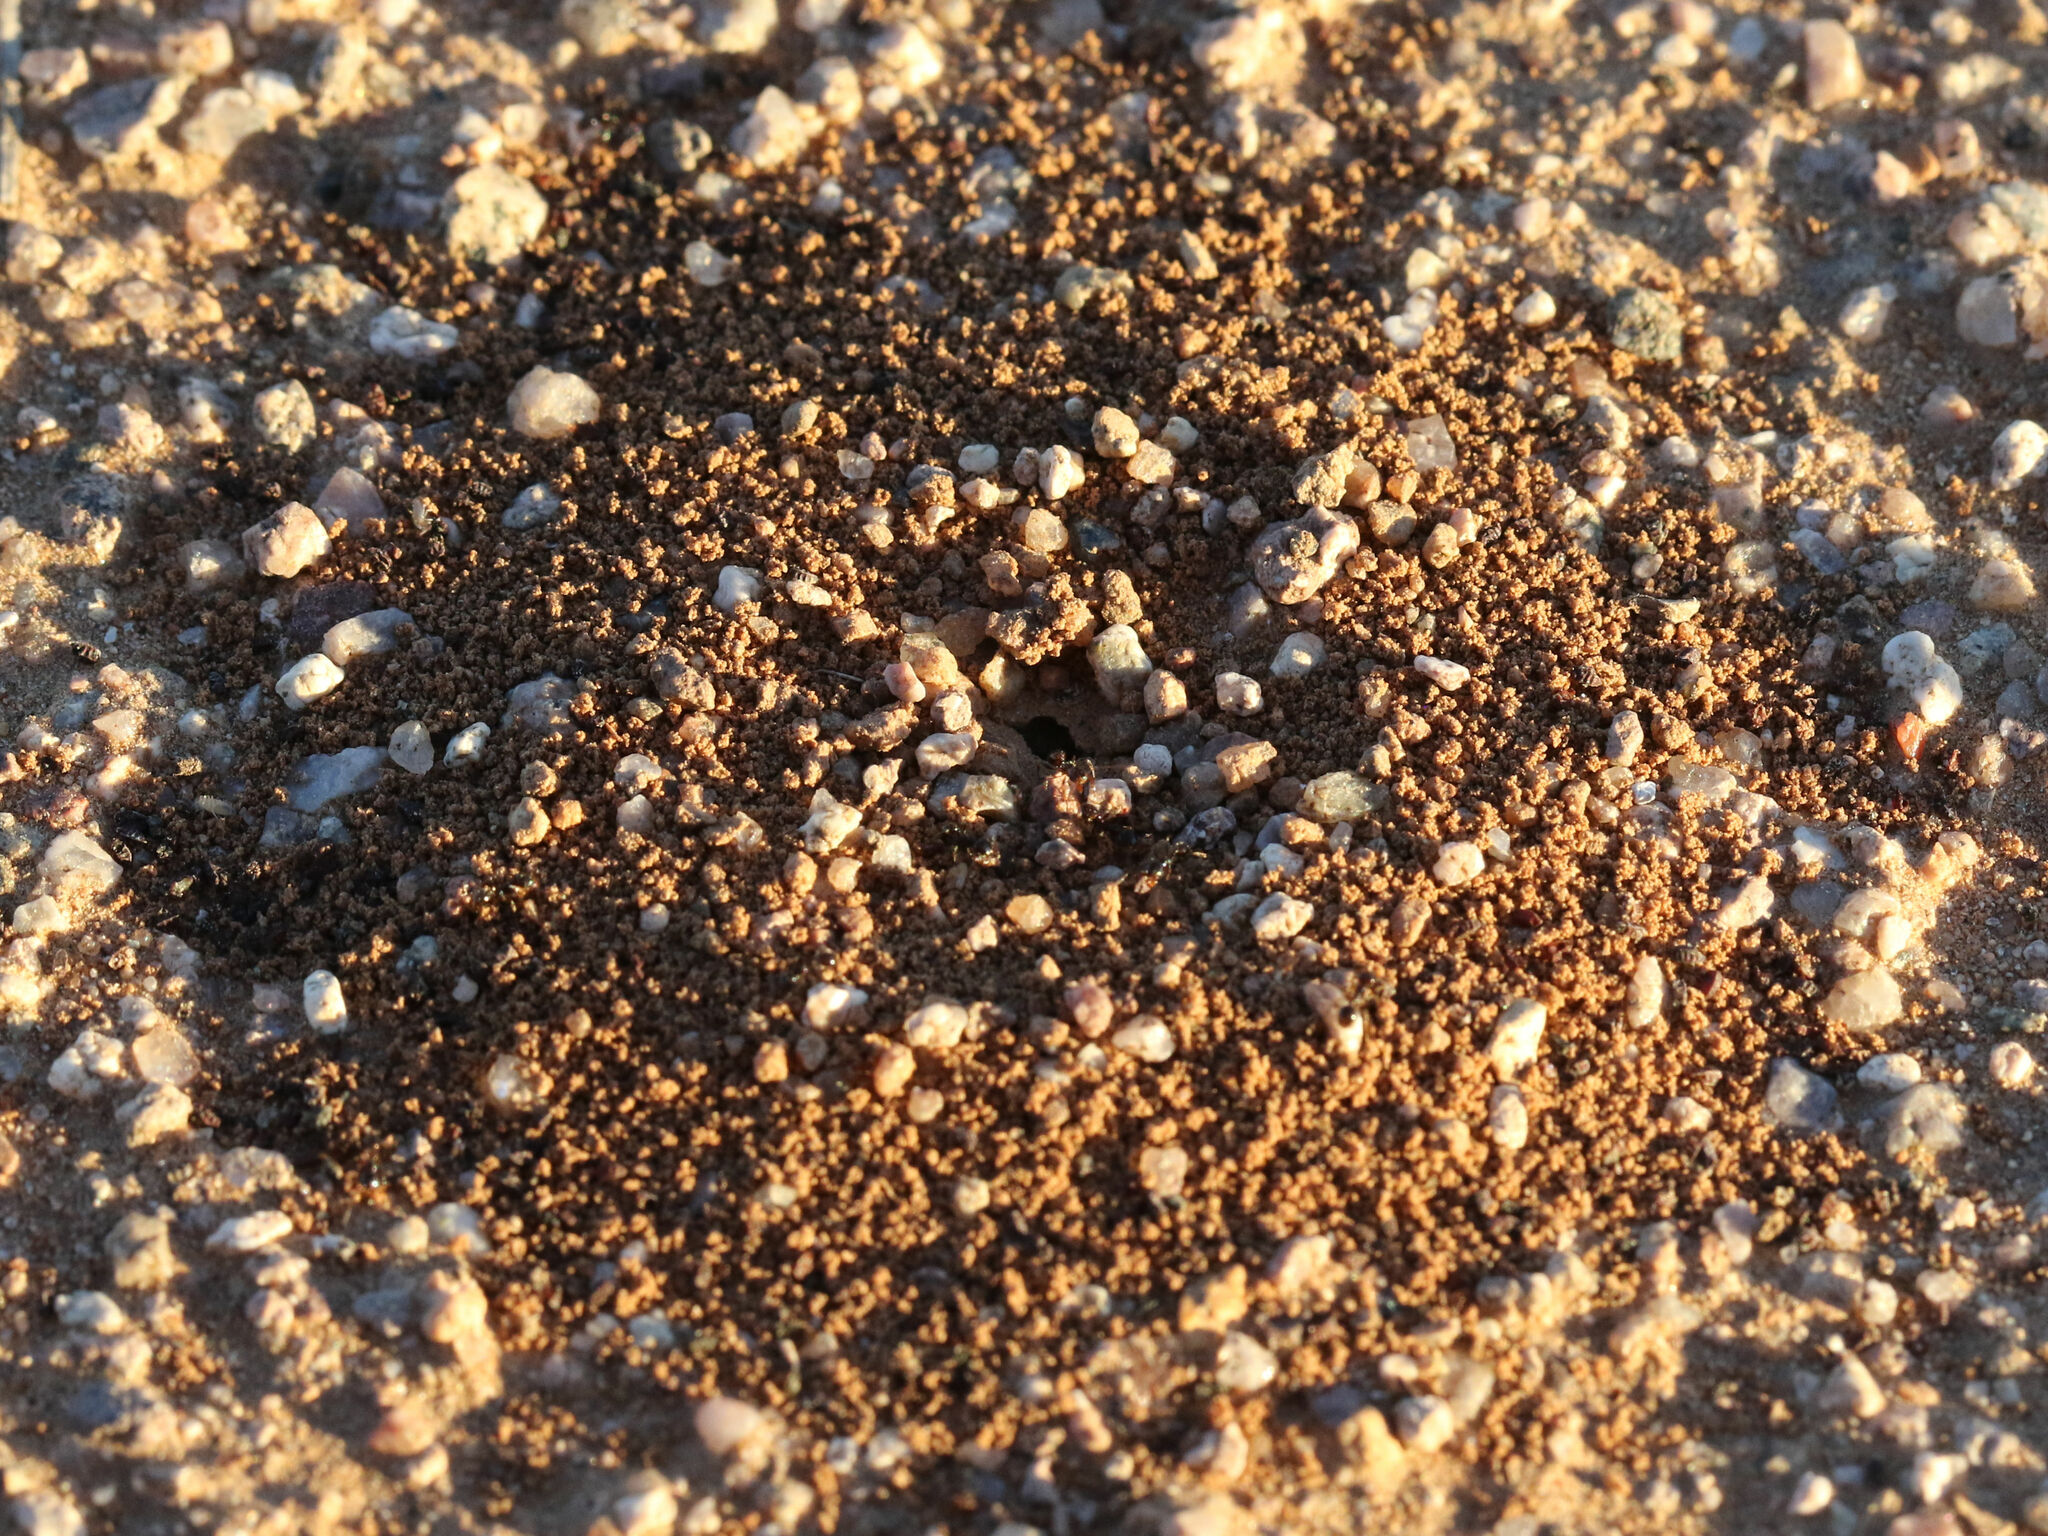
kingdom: Animalia
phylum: Arthropoda
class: Insecta
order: Hymenoptera
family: Formicidae
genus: Pheidole
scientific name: Pheidole xerophila
